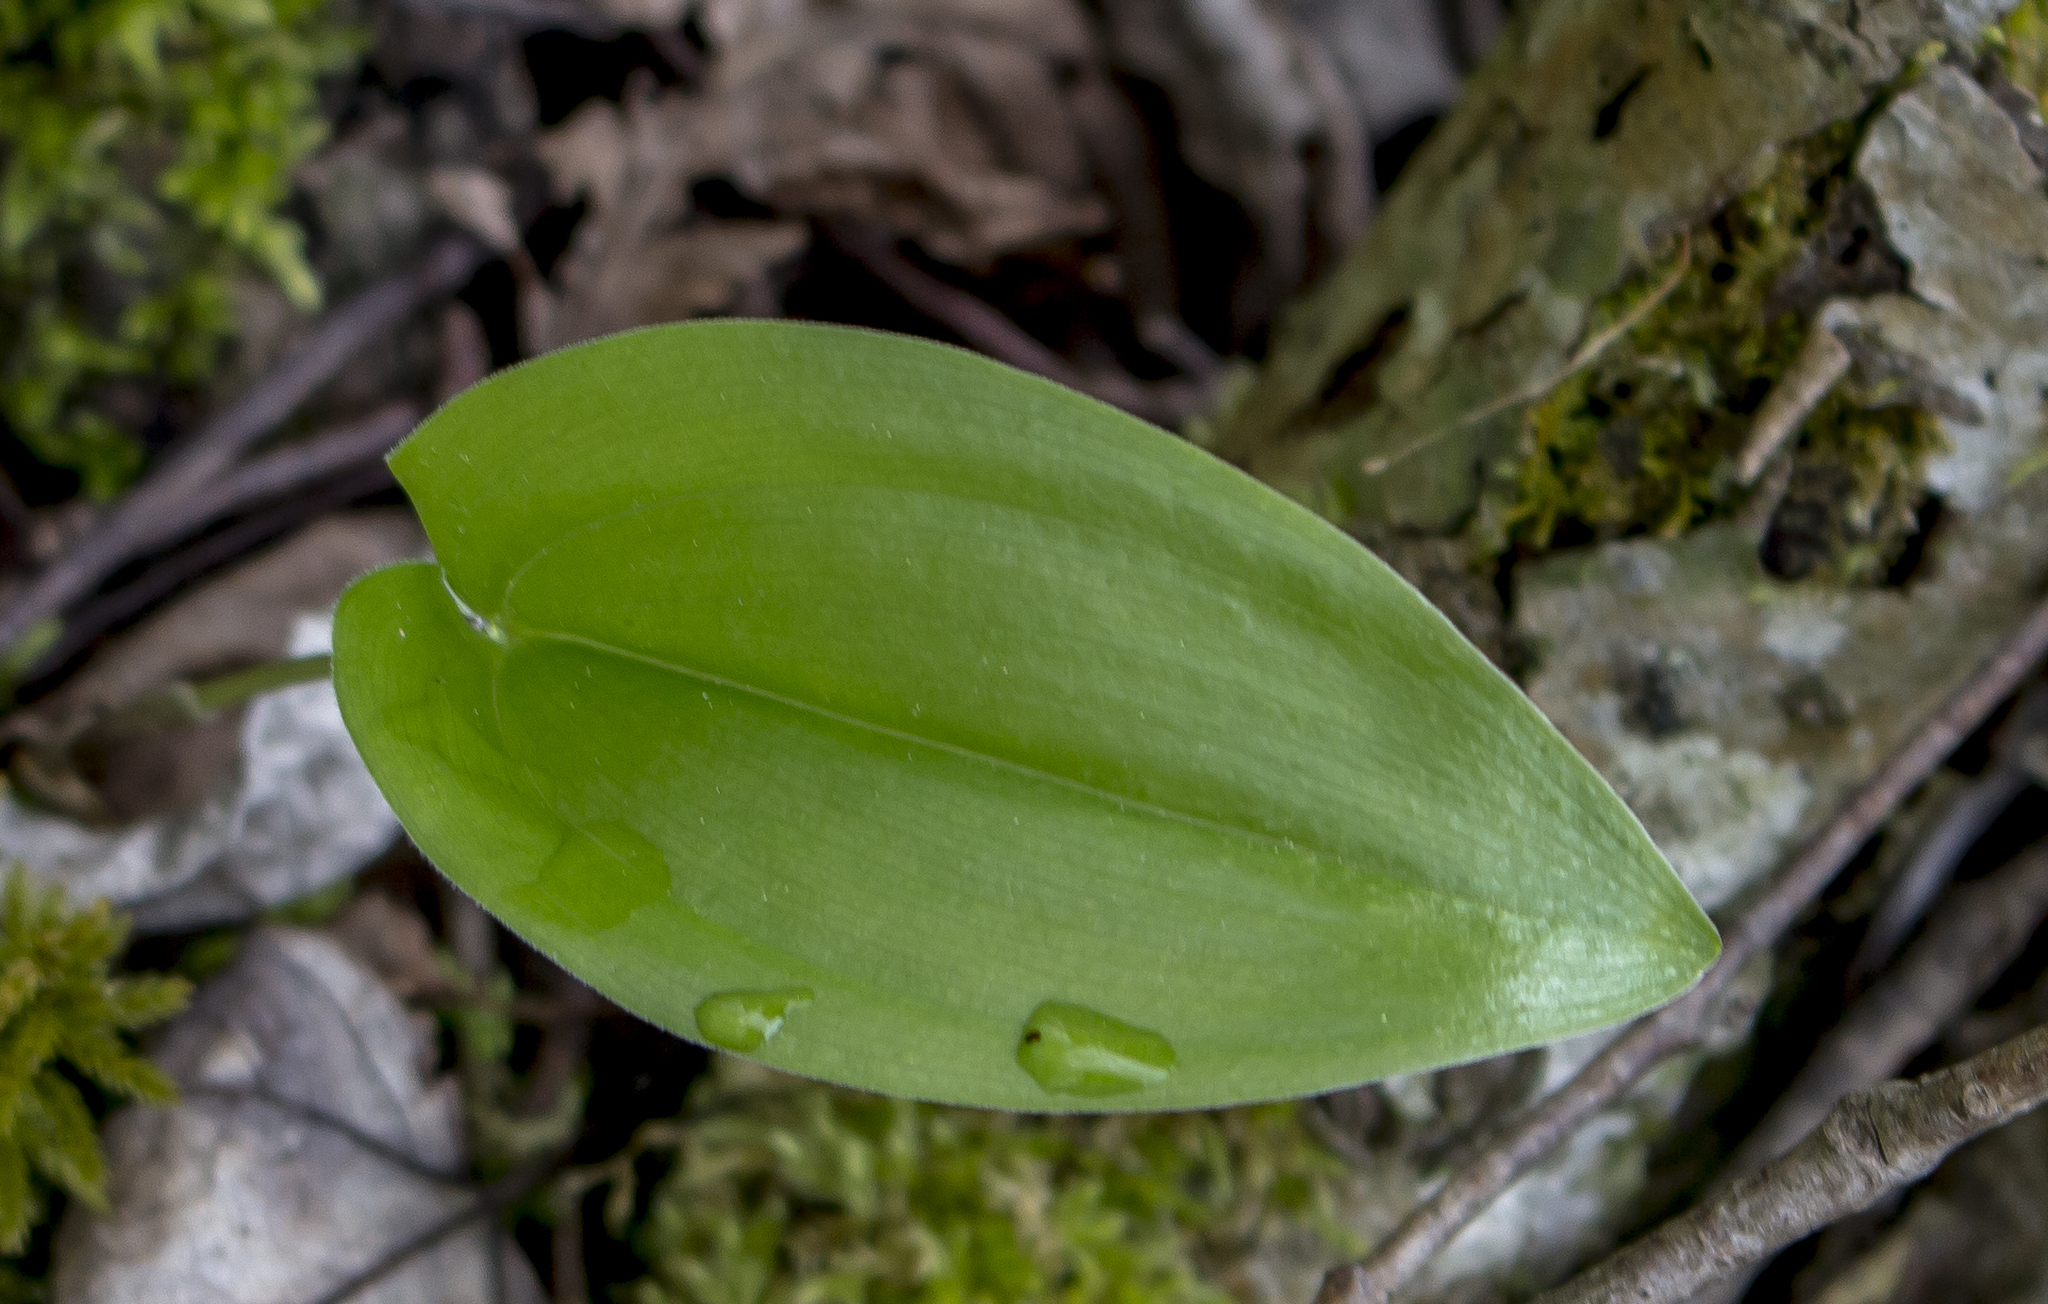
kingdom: Plantae
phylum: Tracheophyta
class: Liliopsida
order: Asparagales
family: Asparagaceae
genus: Maianthemum
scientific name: Maianthemum canadense
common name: False lily-of-the-valley
